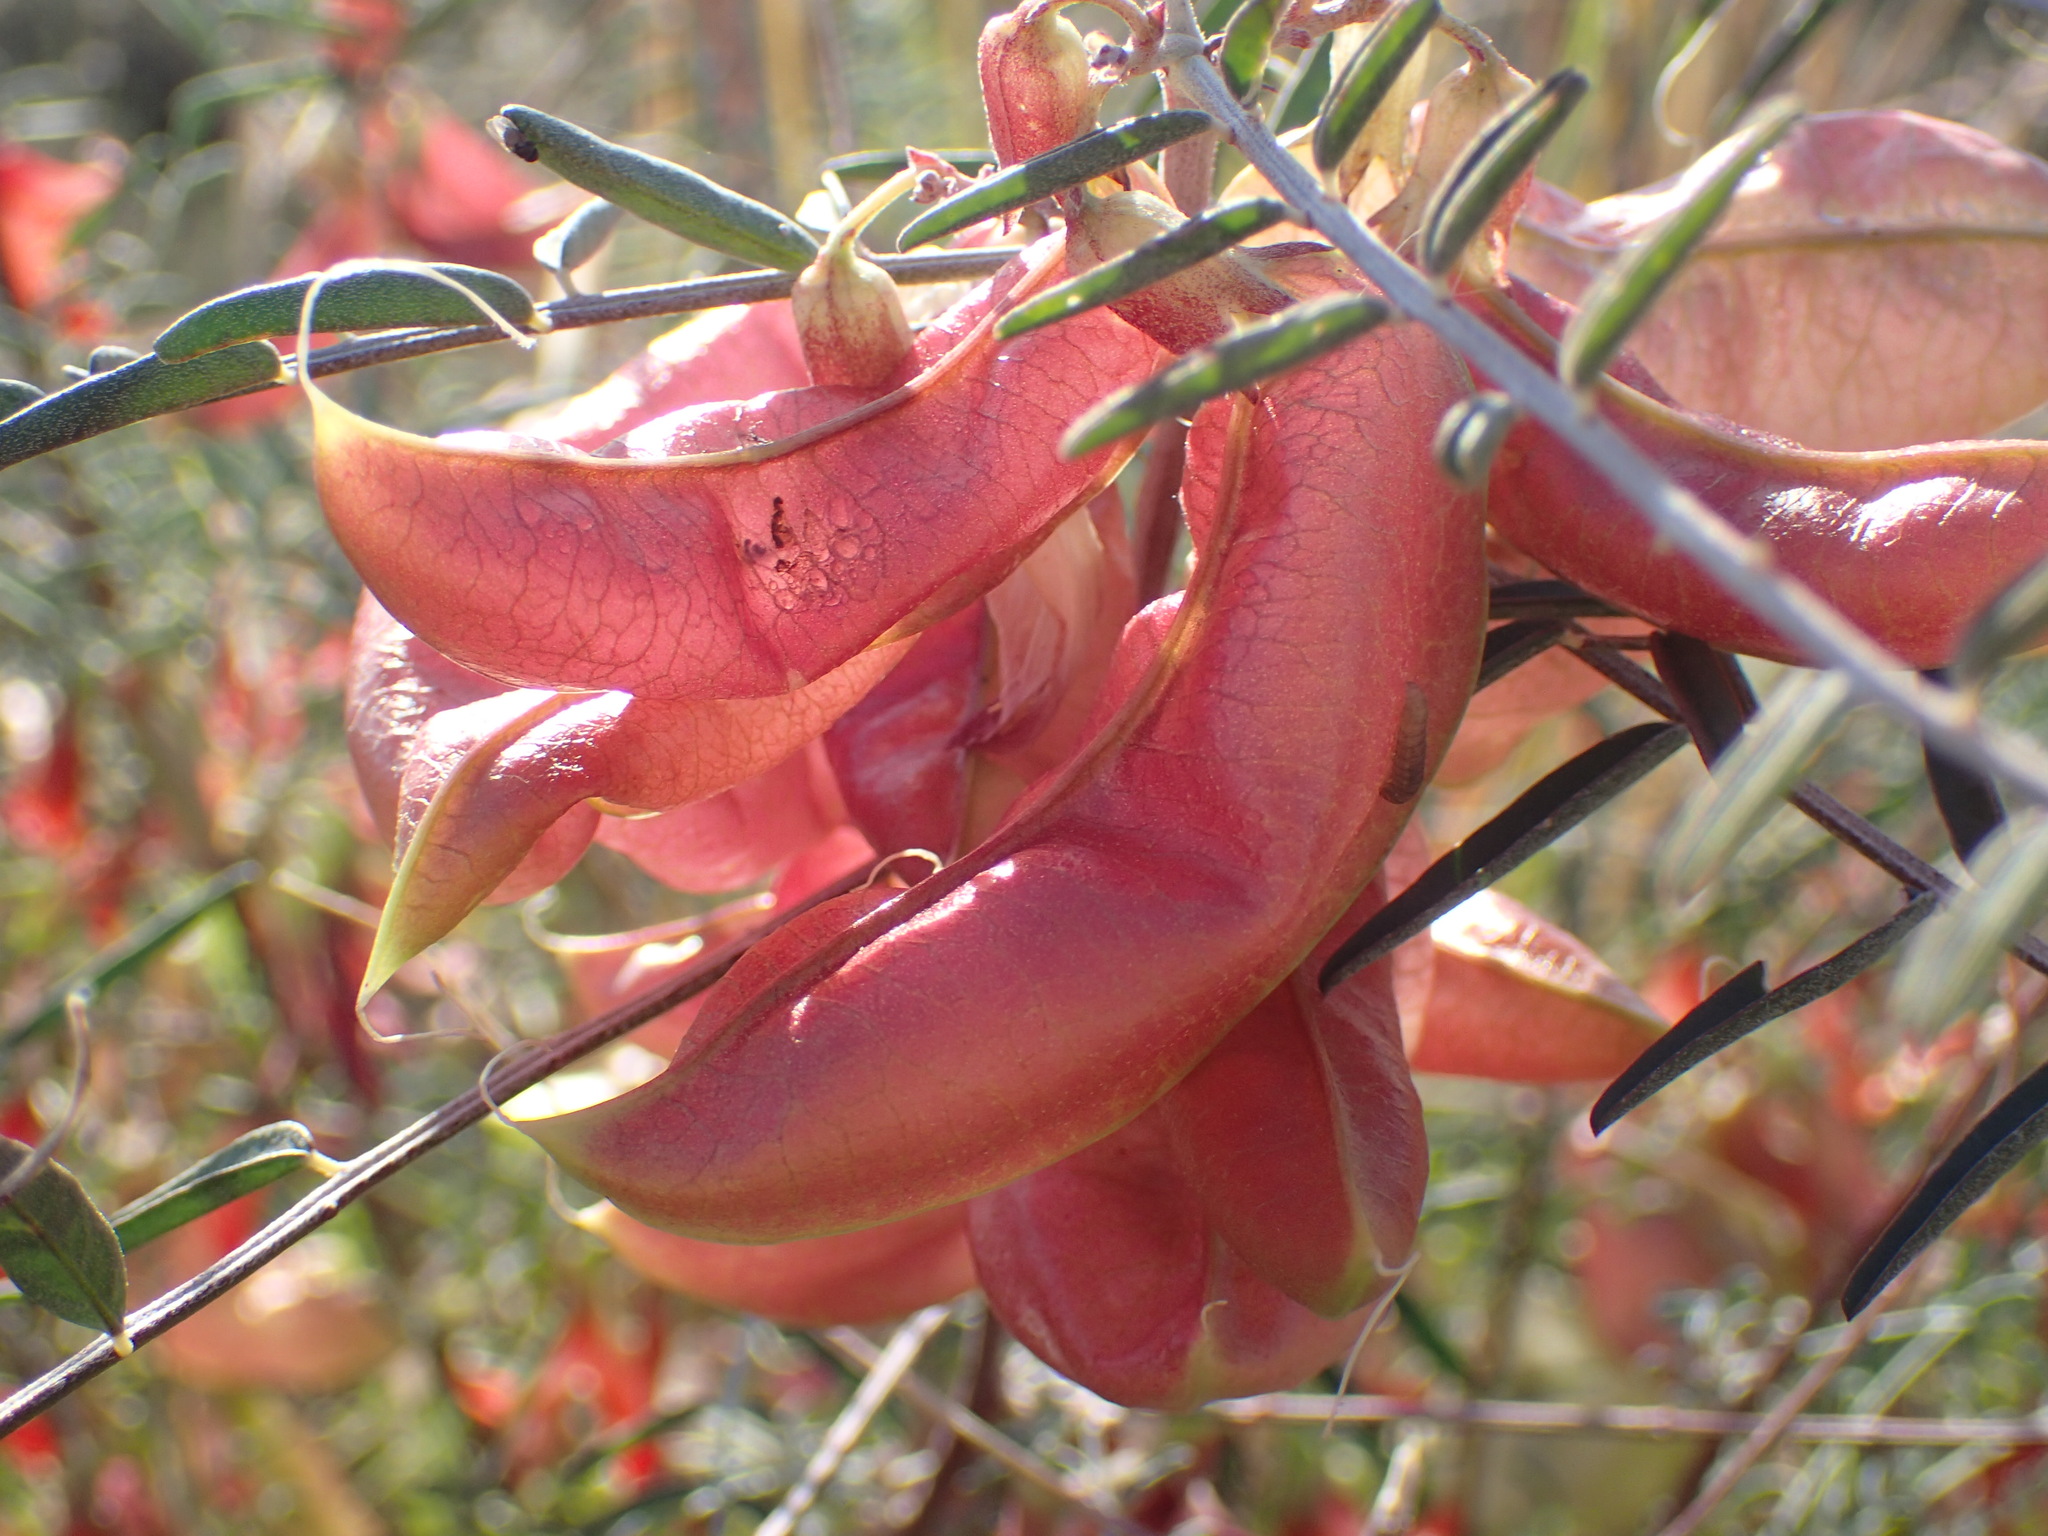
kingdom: Plantae
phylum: Tracheophyta
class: Magnoliopsida
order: Fabales
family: Fabaceae
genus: Lessertia
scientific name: Lessertia frutescens
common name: Balloon-pea
